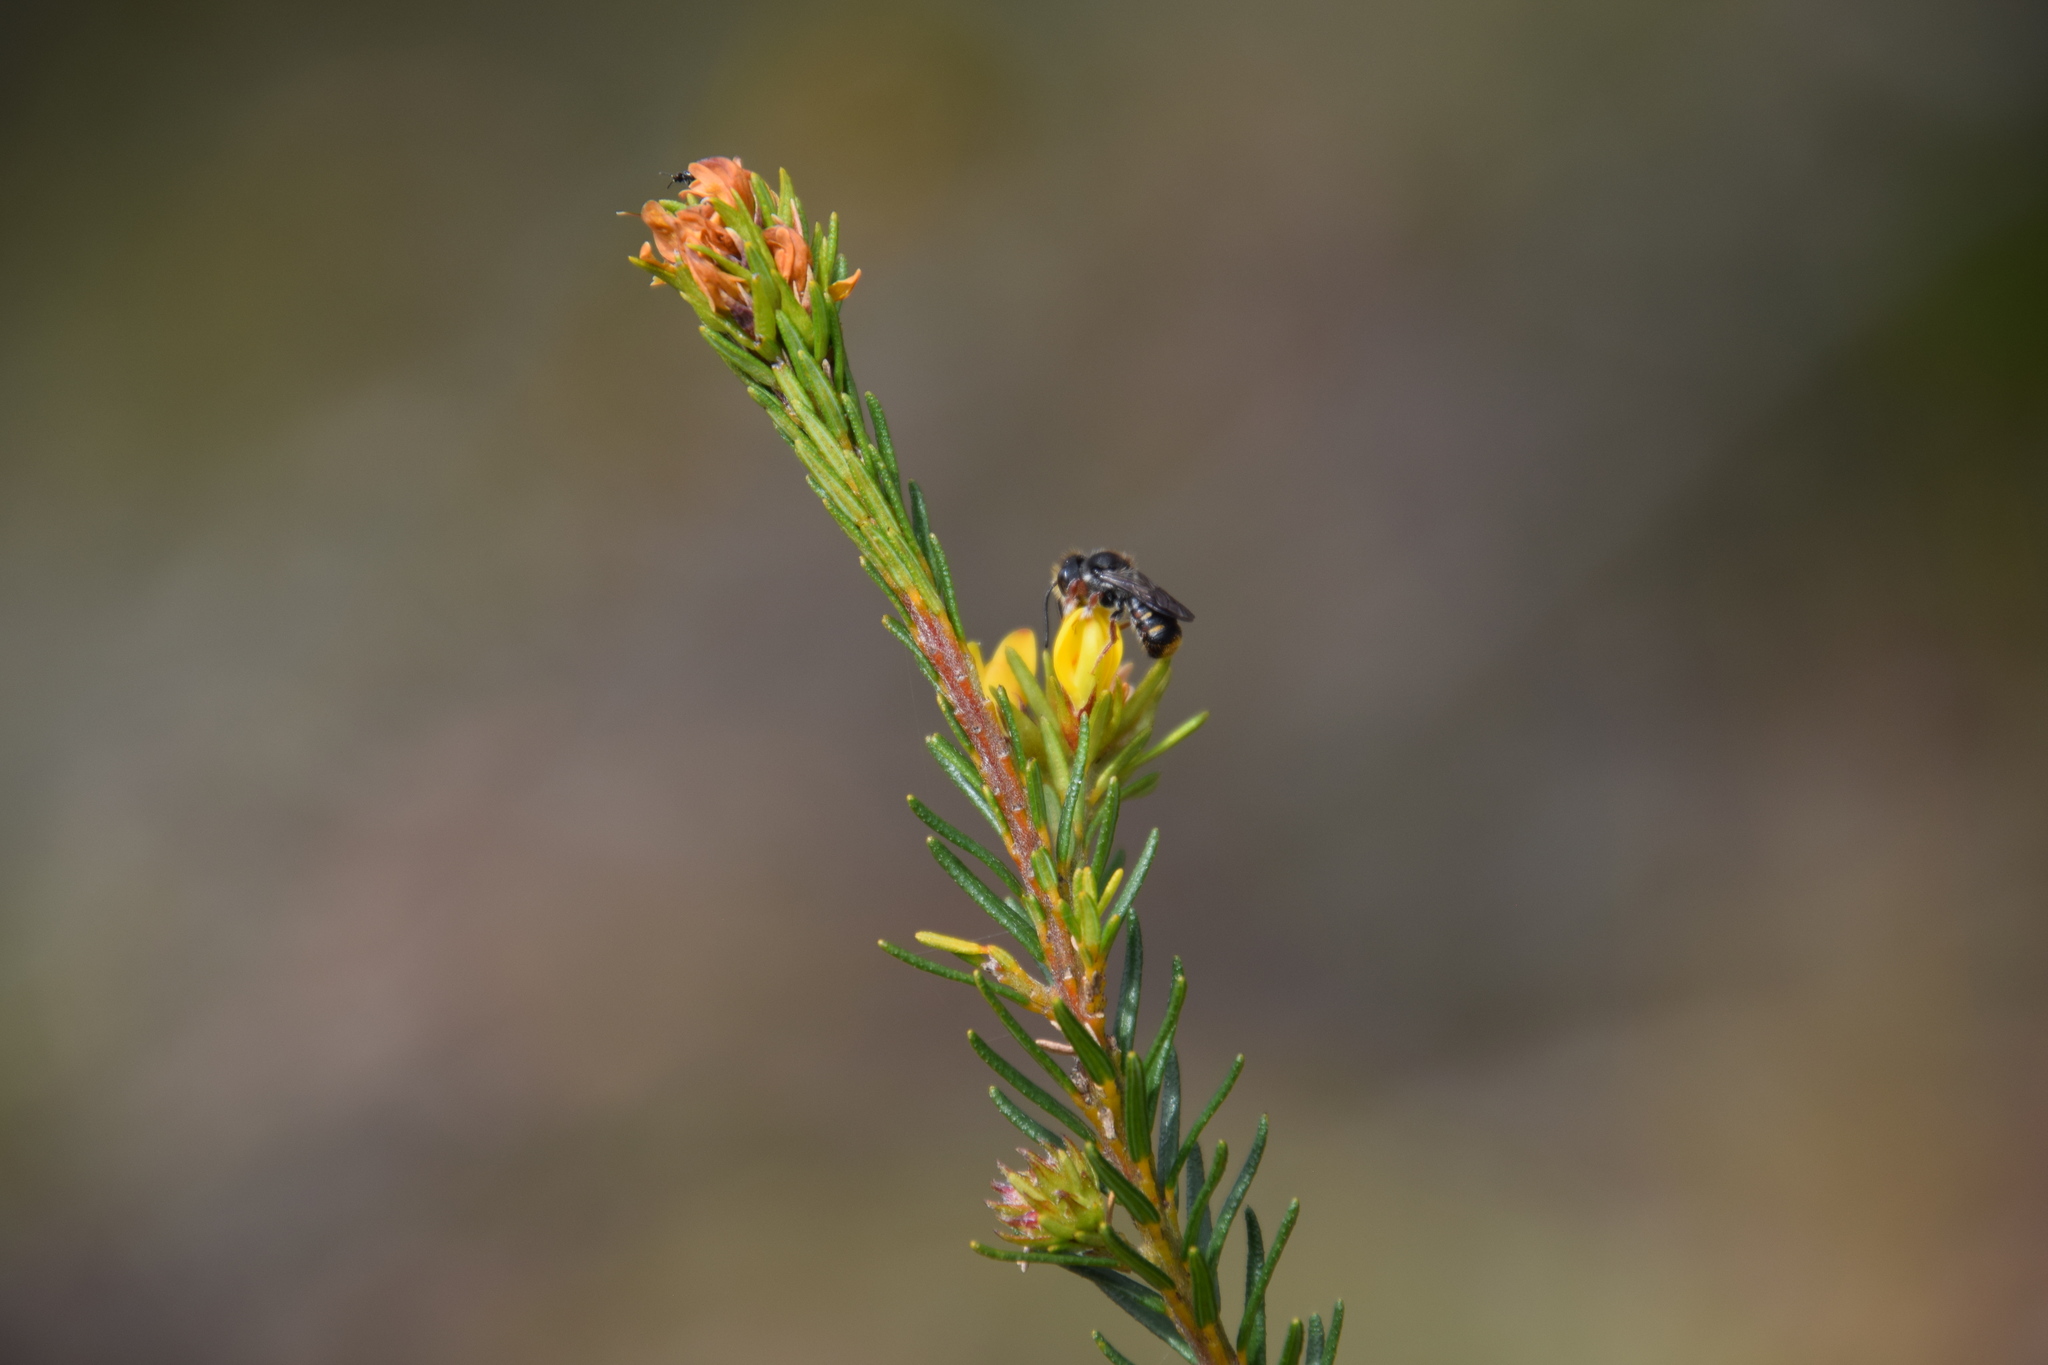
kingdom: Animalia
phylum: Arthropoda
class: Insecta
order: Hymenoptera
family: Megachilidae
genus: Megachile
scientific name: Megachile leucopyga
